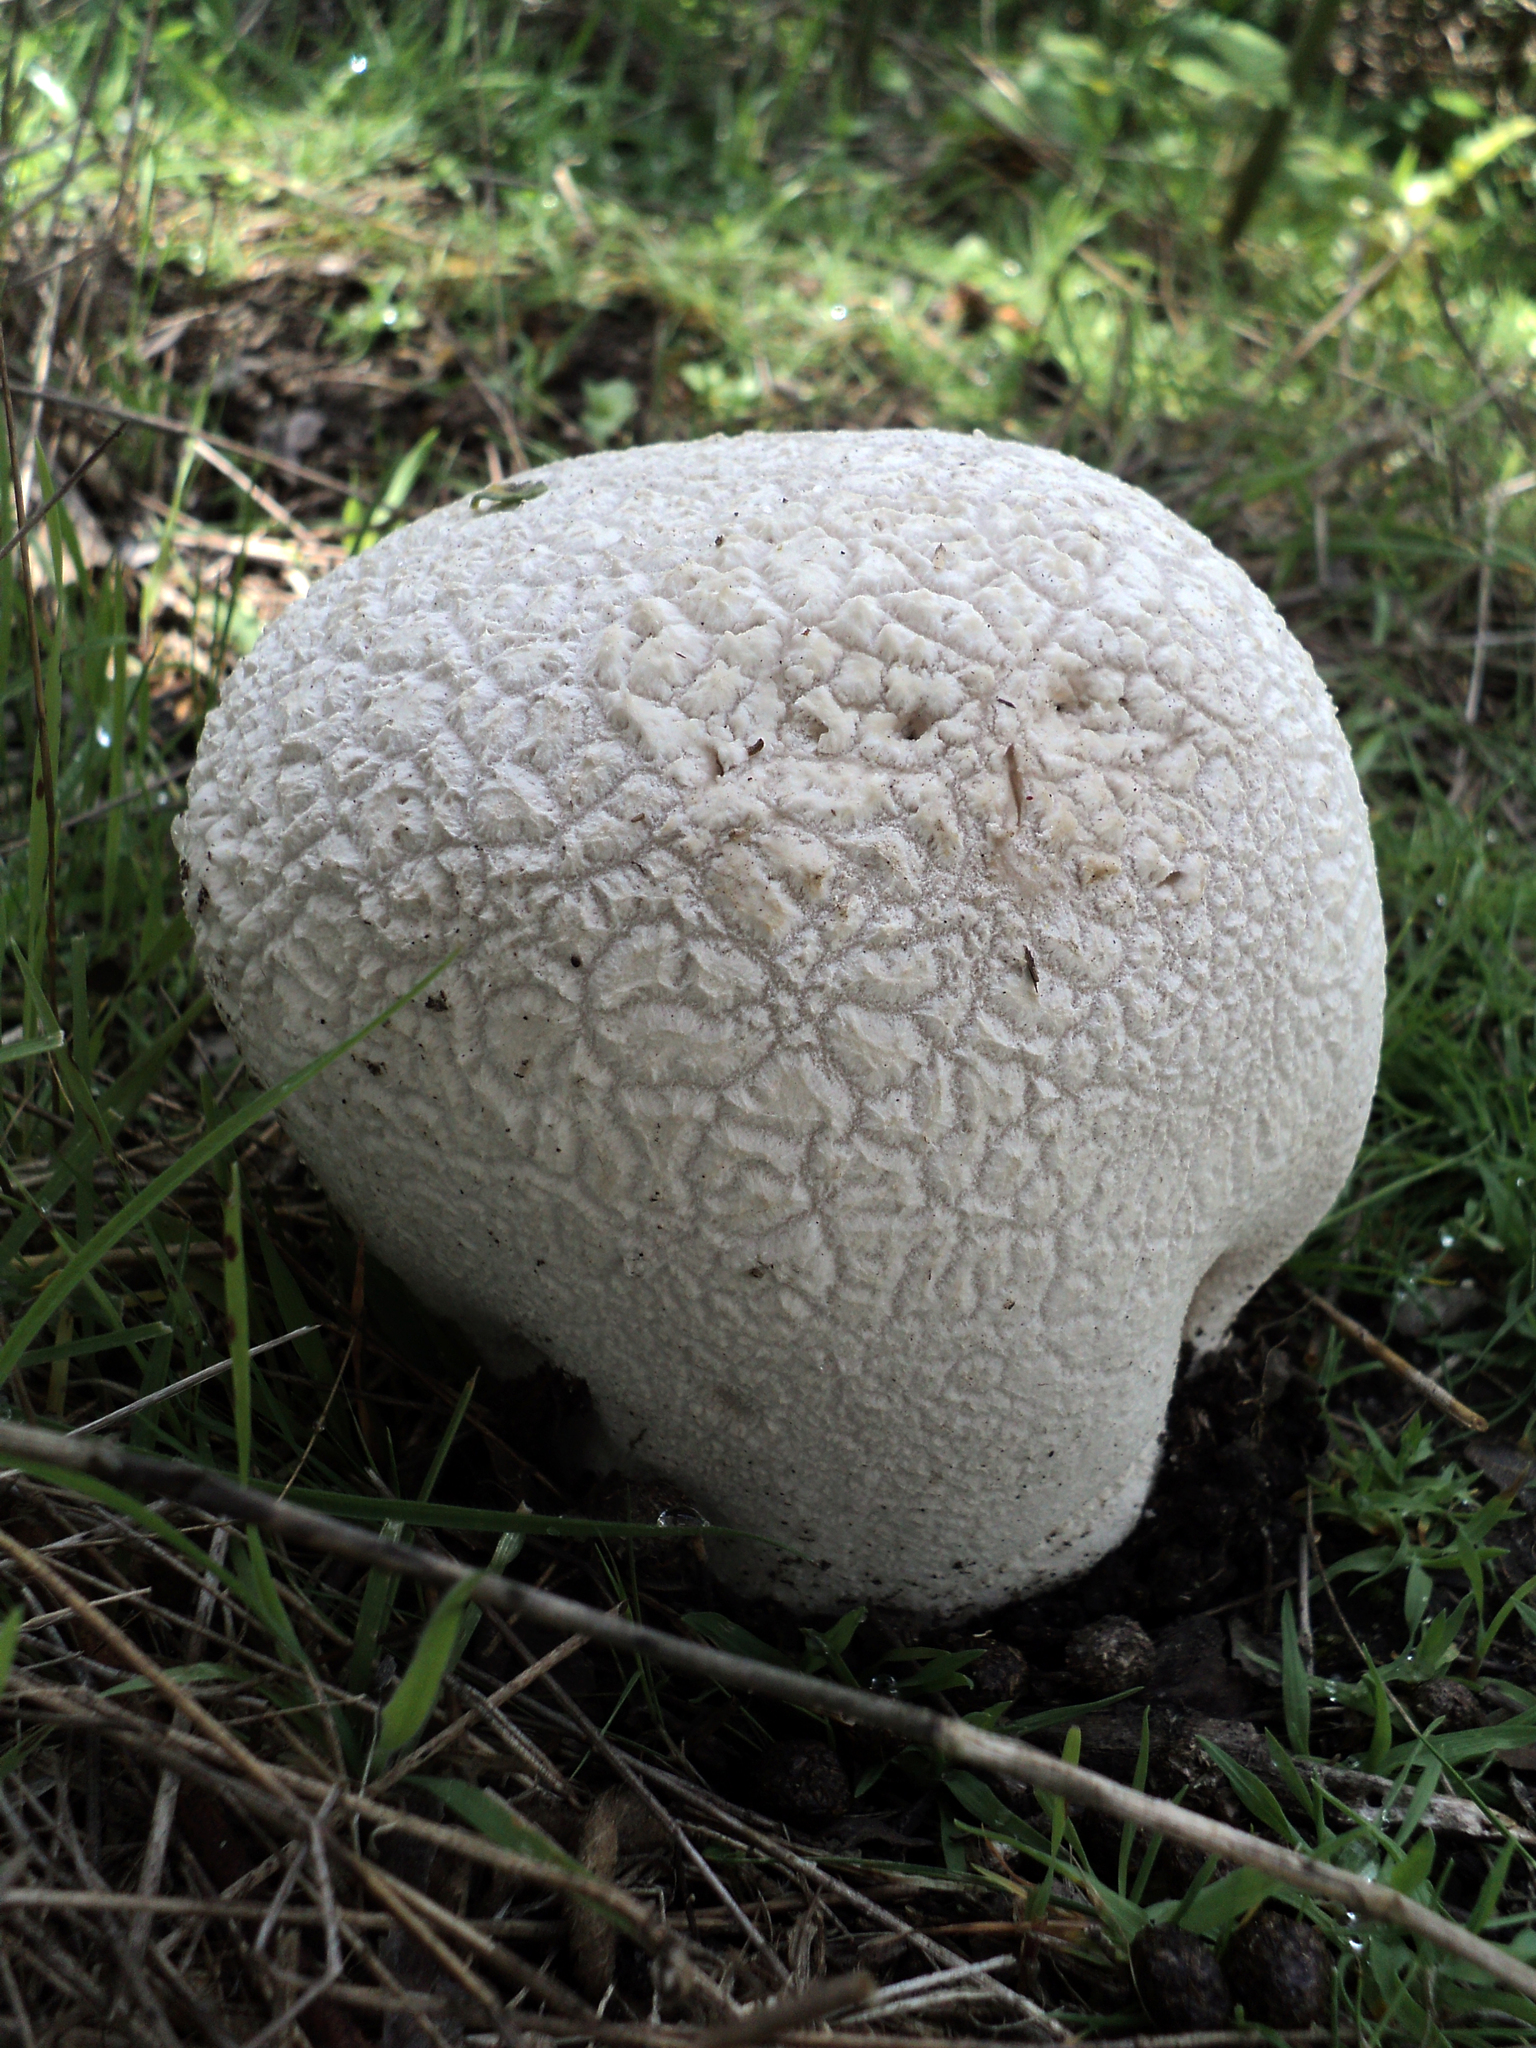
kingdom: Fungi
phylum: Basidiomycota
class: Agaricomycetes
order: Agaricales
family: Lycoperdaceae
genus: Bovistella
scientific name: Bovistella utriformis
